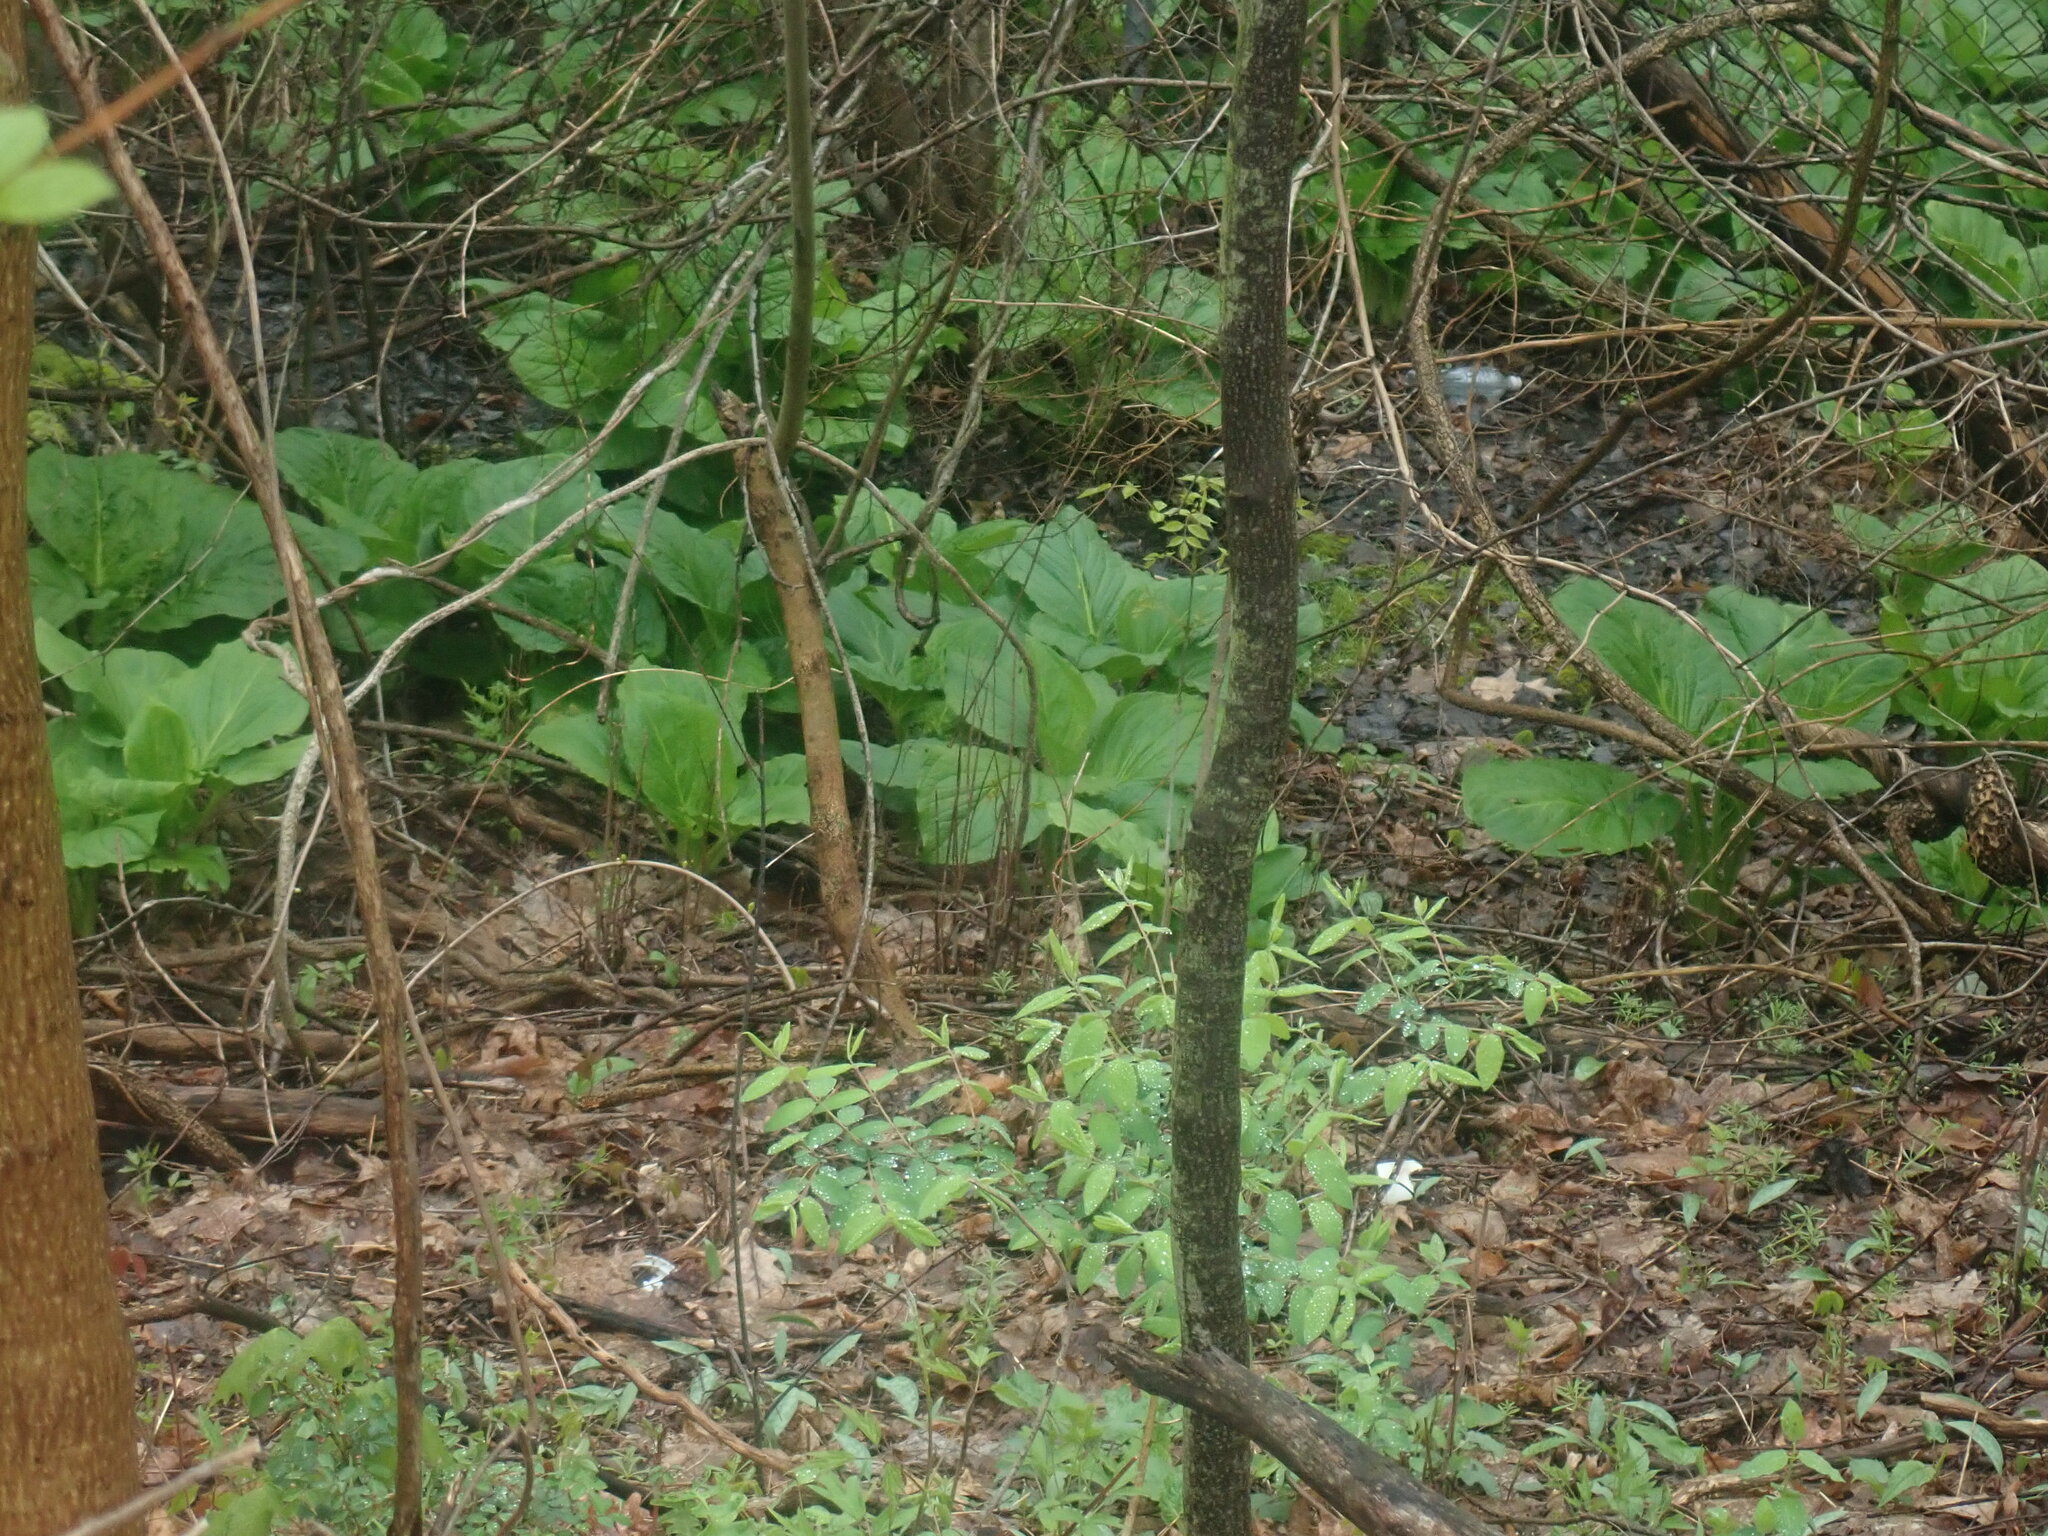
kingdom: Plantae
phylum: Tracheophyta
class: Liliopsida
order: Alismatales
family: Araceae
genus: Symplocarpus
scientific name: Symplocarpus foetidus
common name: Eastern skunk cabbage
